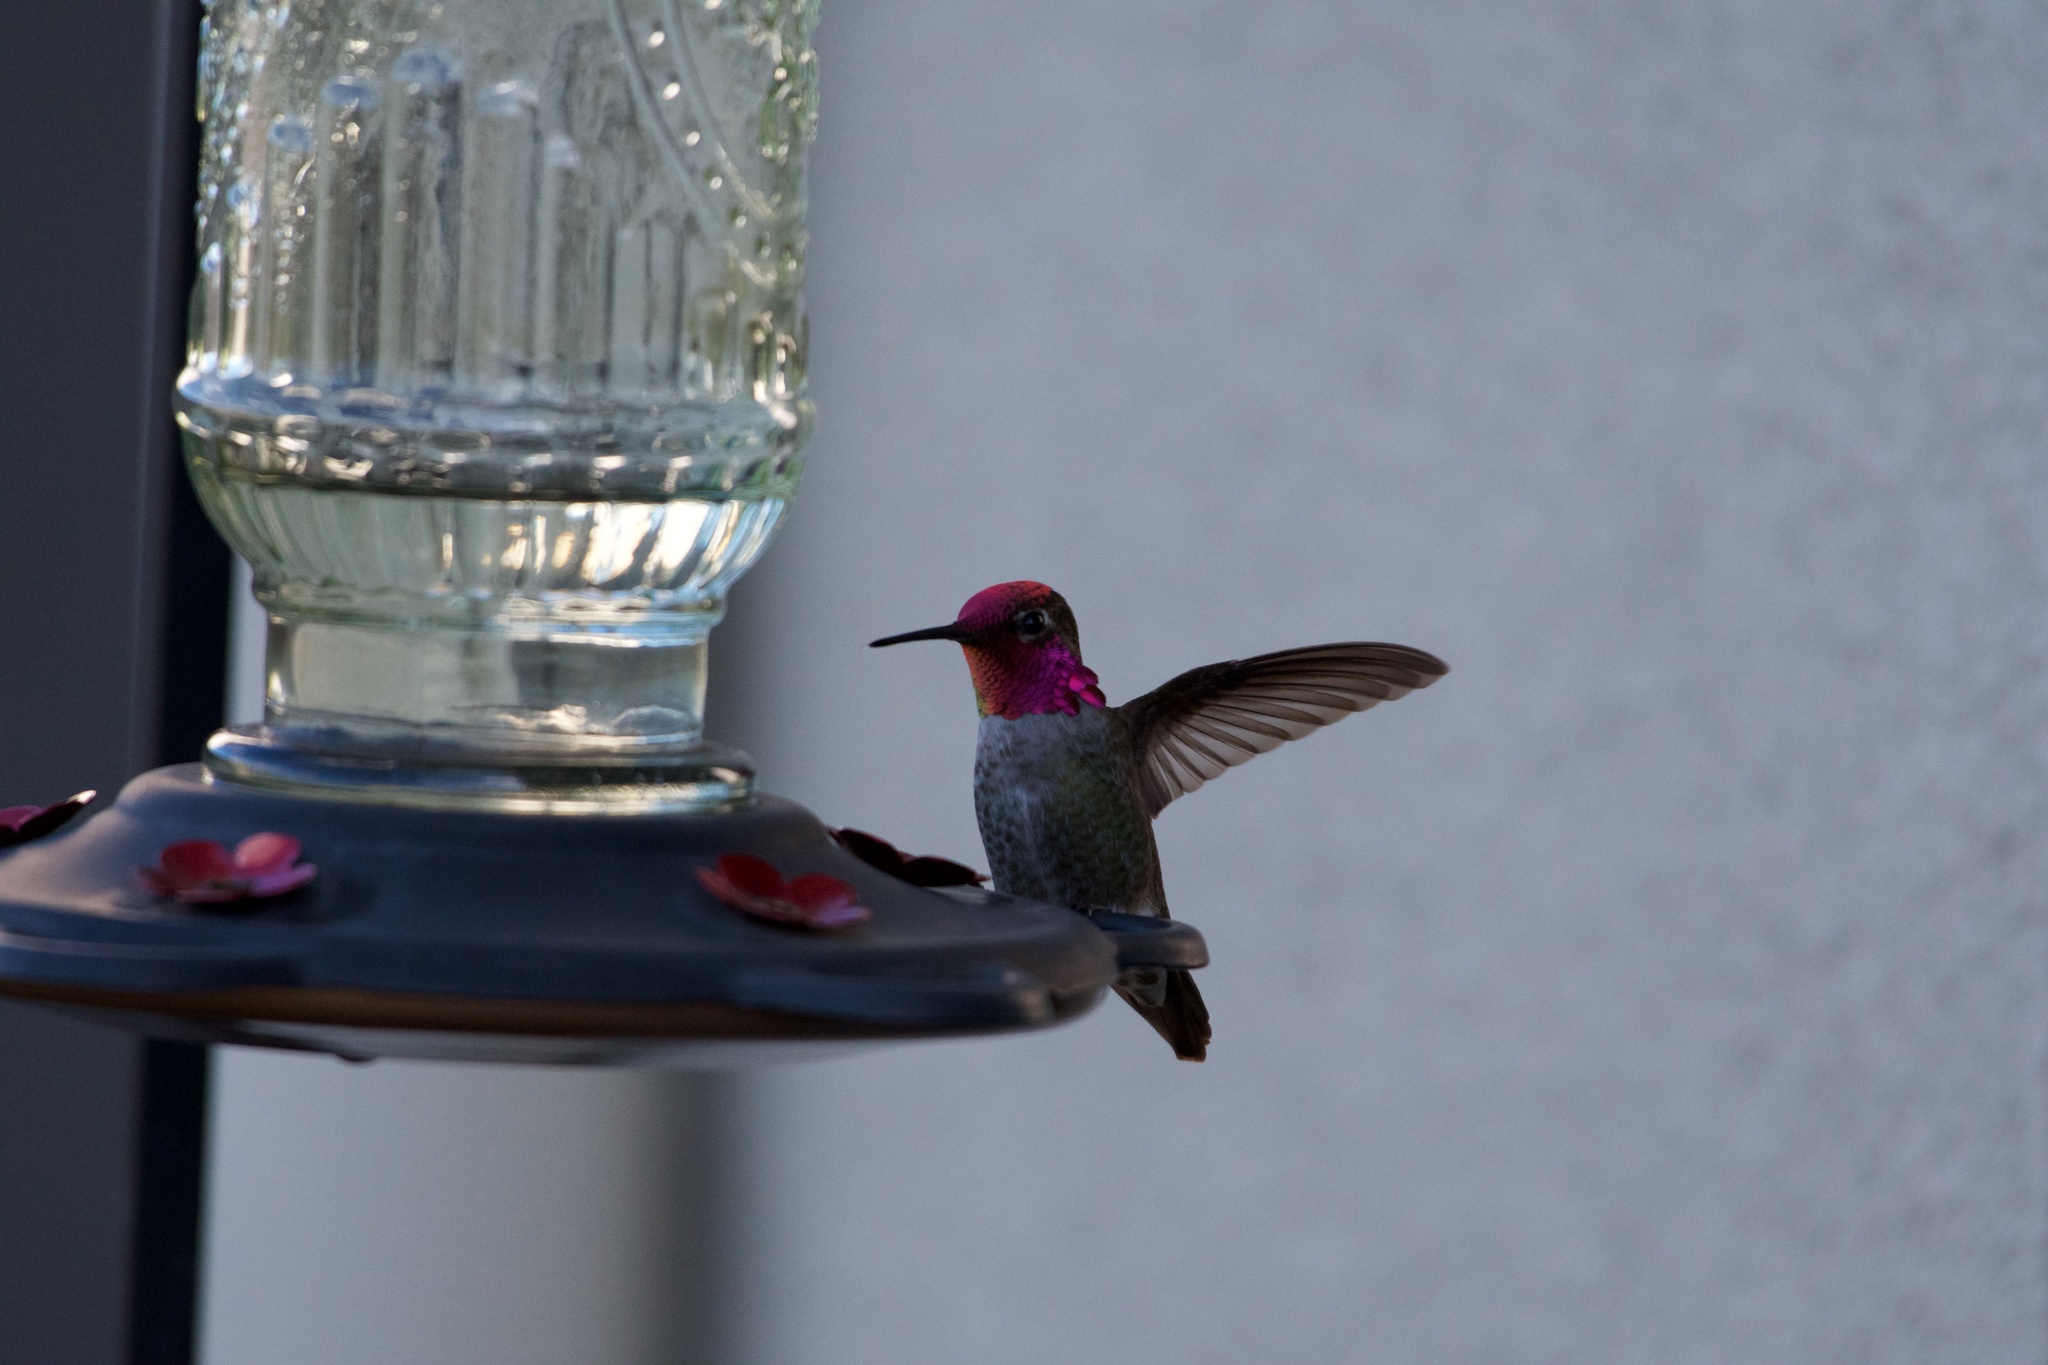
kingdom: Animalia
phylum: Chordata
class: Aves
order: Apodiformes
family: Trochilidae
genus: Calypte
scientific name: Calypte anna
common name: Anna's hummingbird
